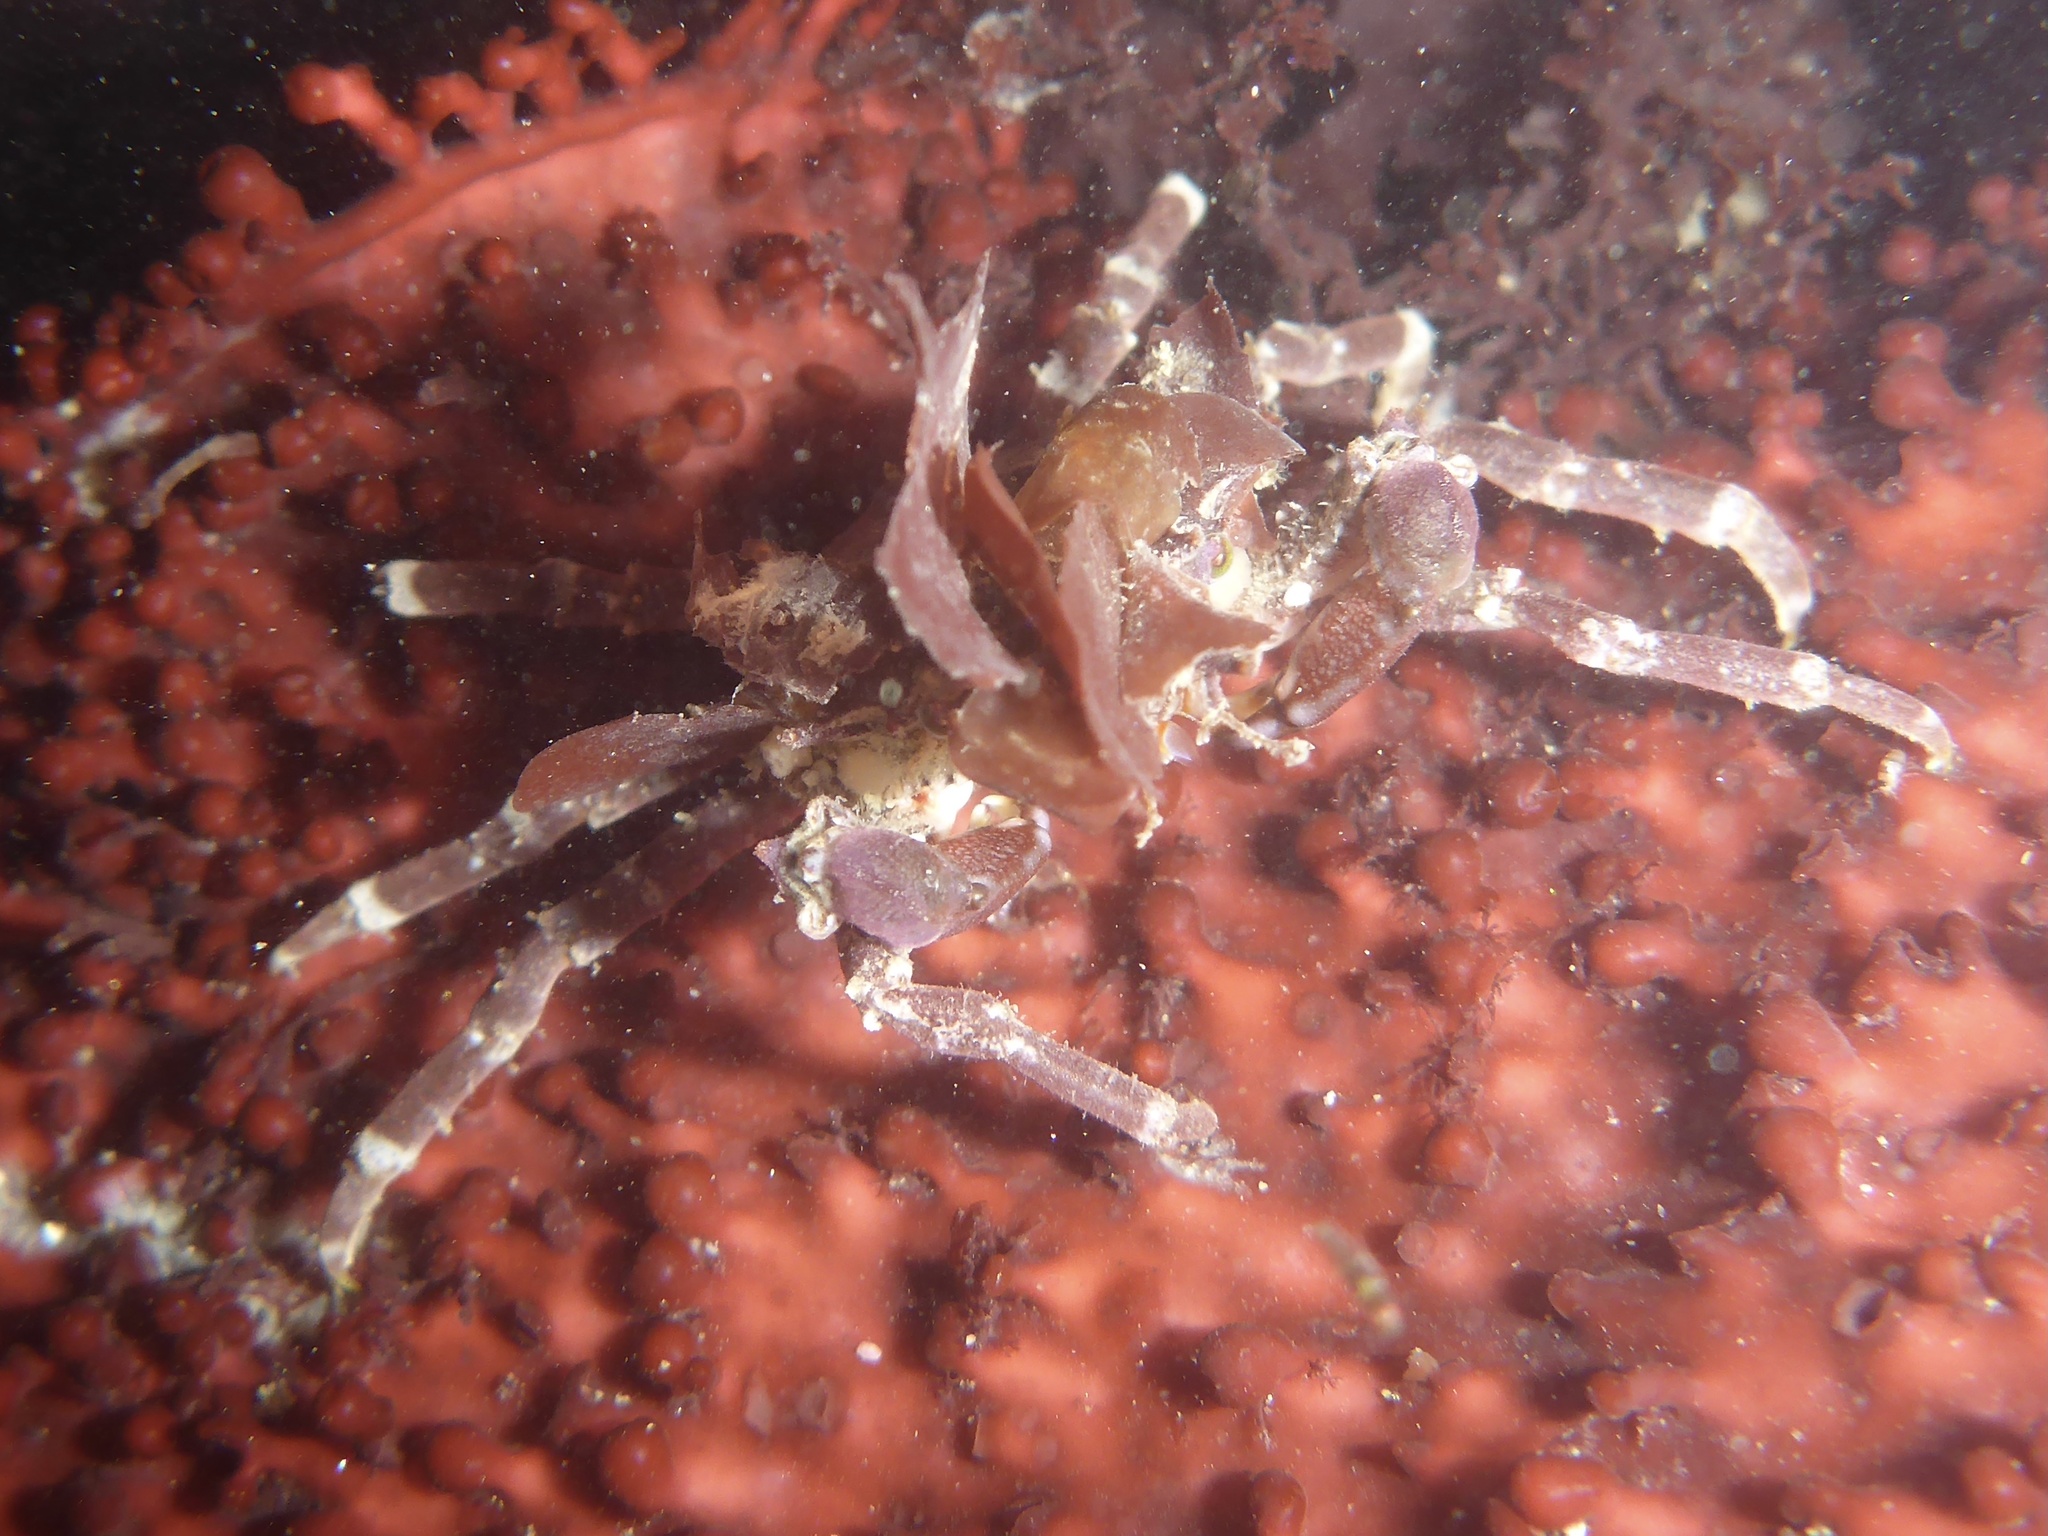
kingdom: Animalia
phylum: Arthropoda
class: Malacostraca
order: Decapoda
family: Epialtidae
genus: Pugettia
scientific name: Pugettia richii
